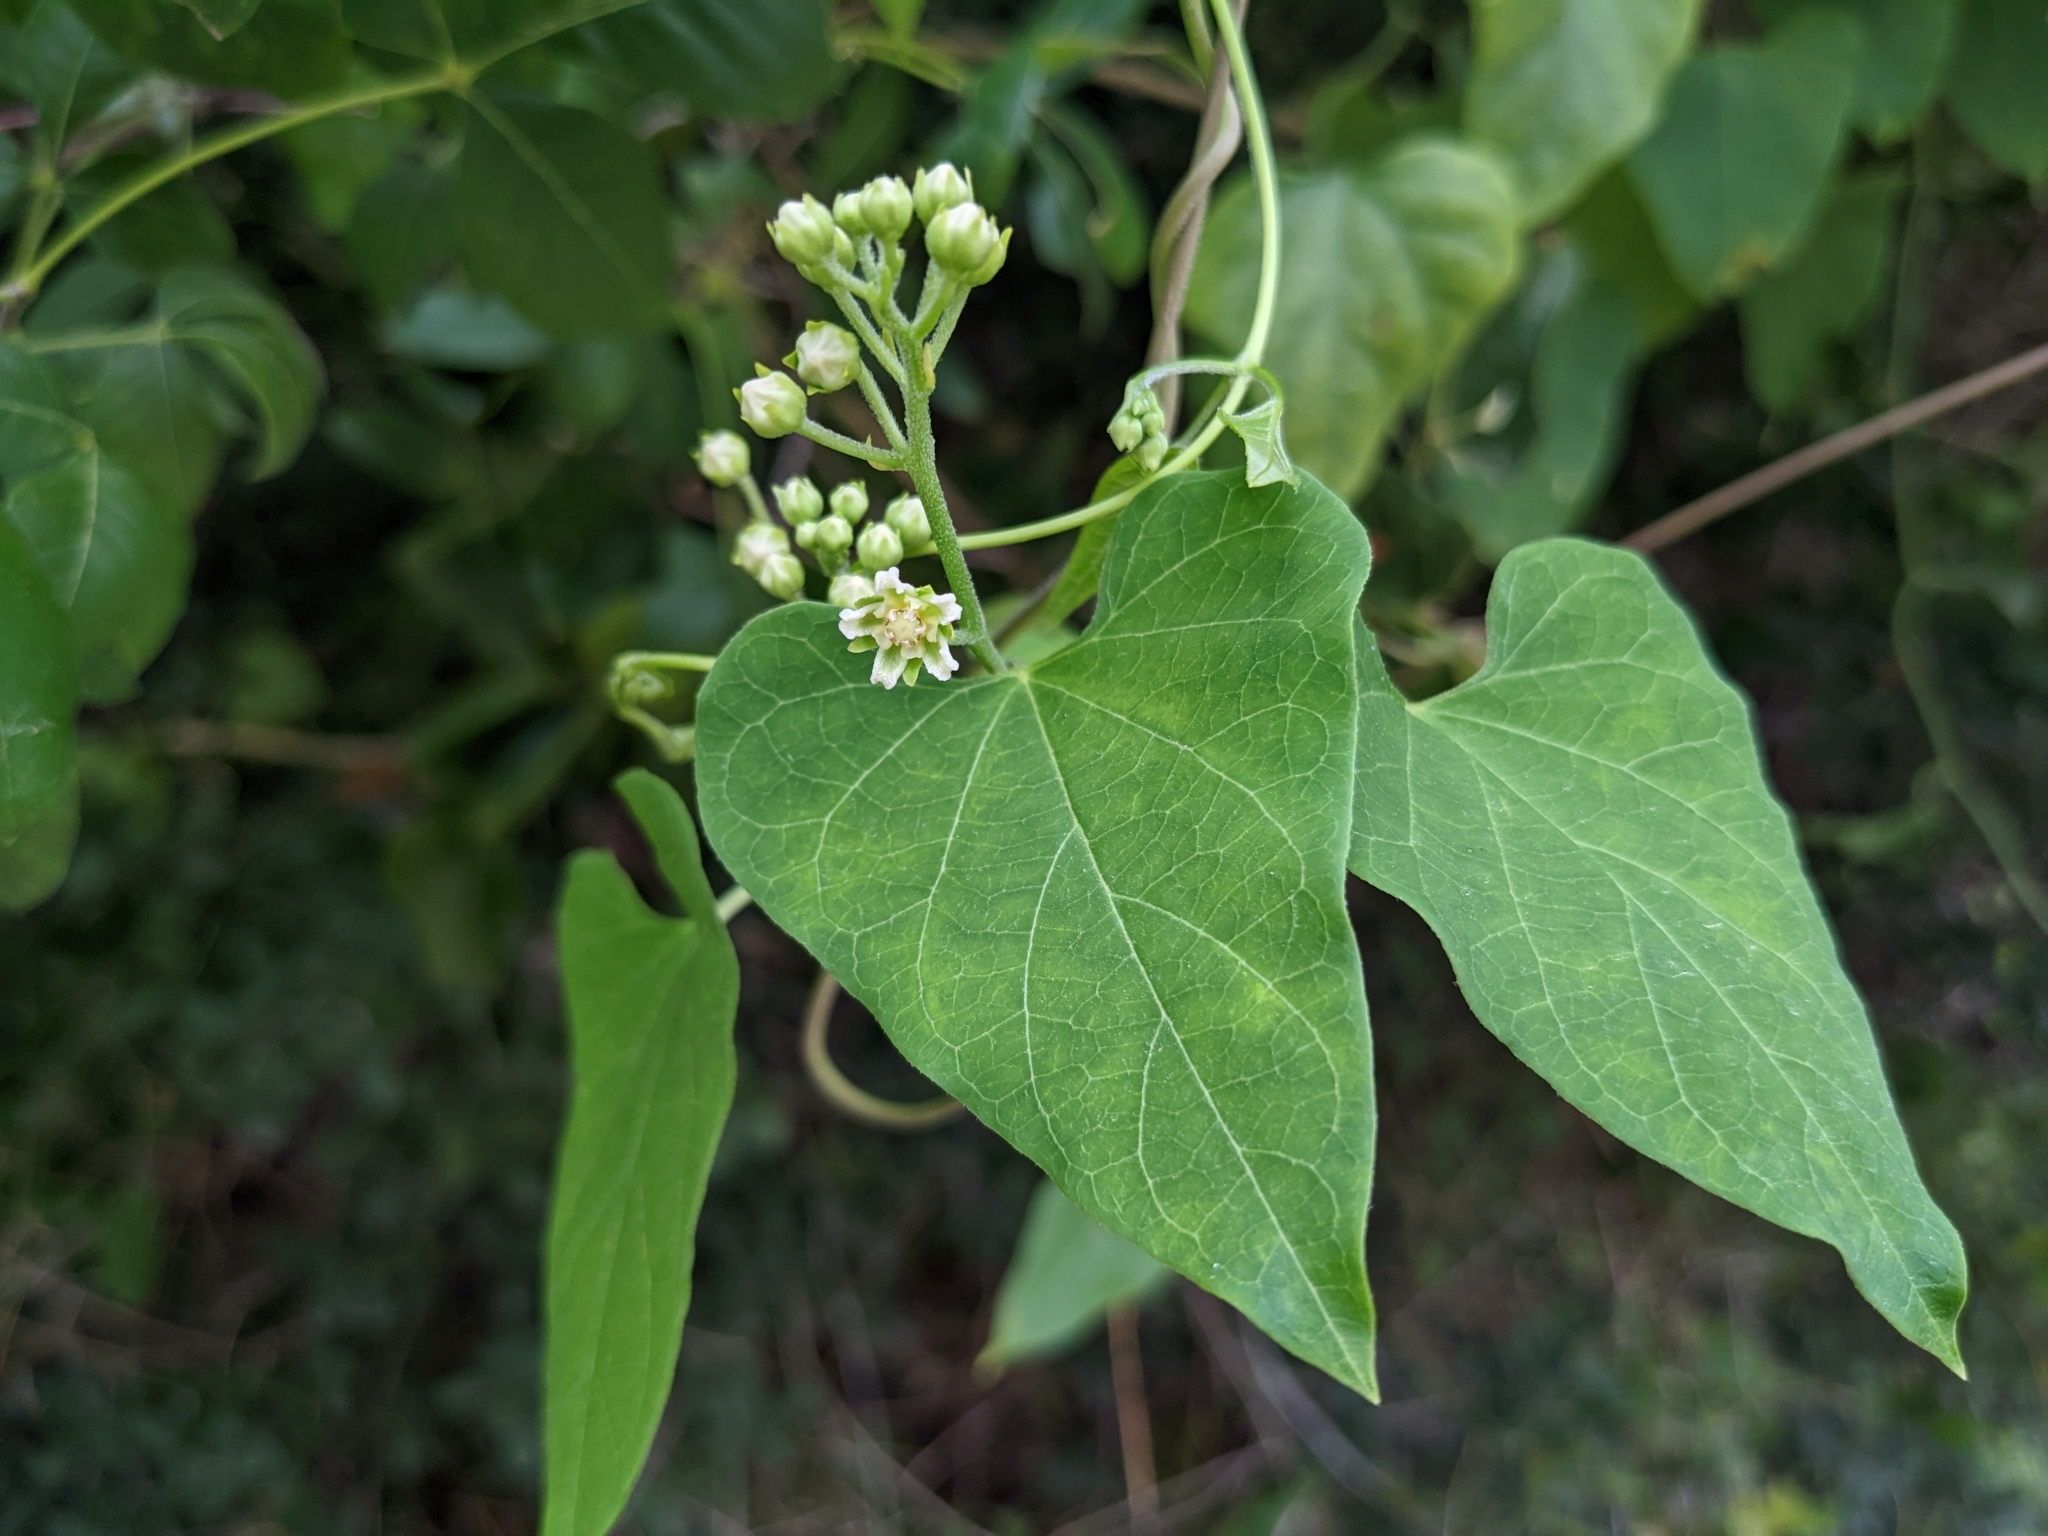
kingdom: Plantae
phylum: Tracheophyta
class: Magnoliopsida
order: Gentianales
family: Apocynaceae
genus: Cynanchum
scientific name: Cynanchum racemosum
